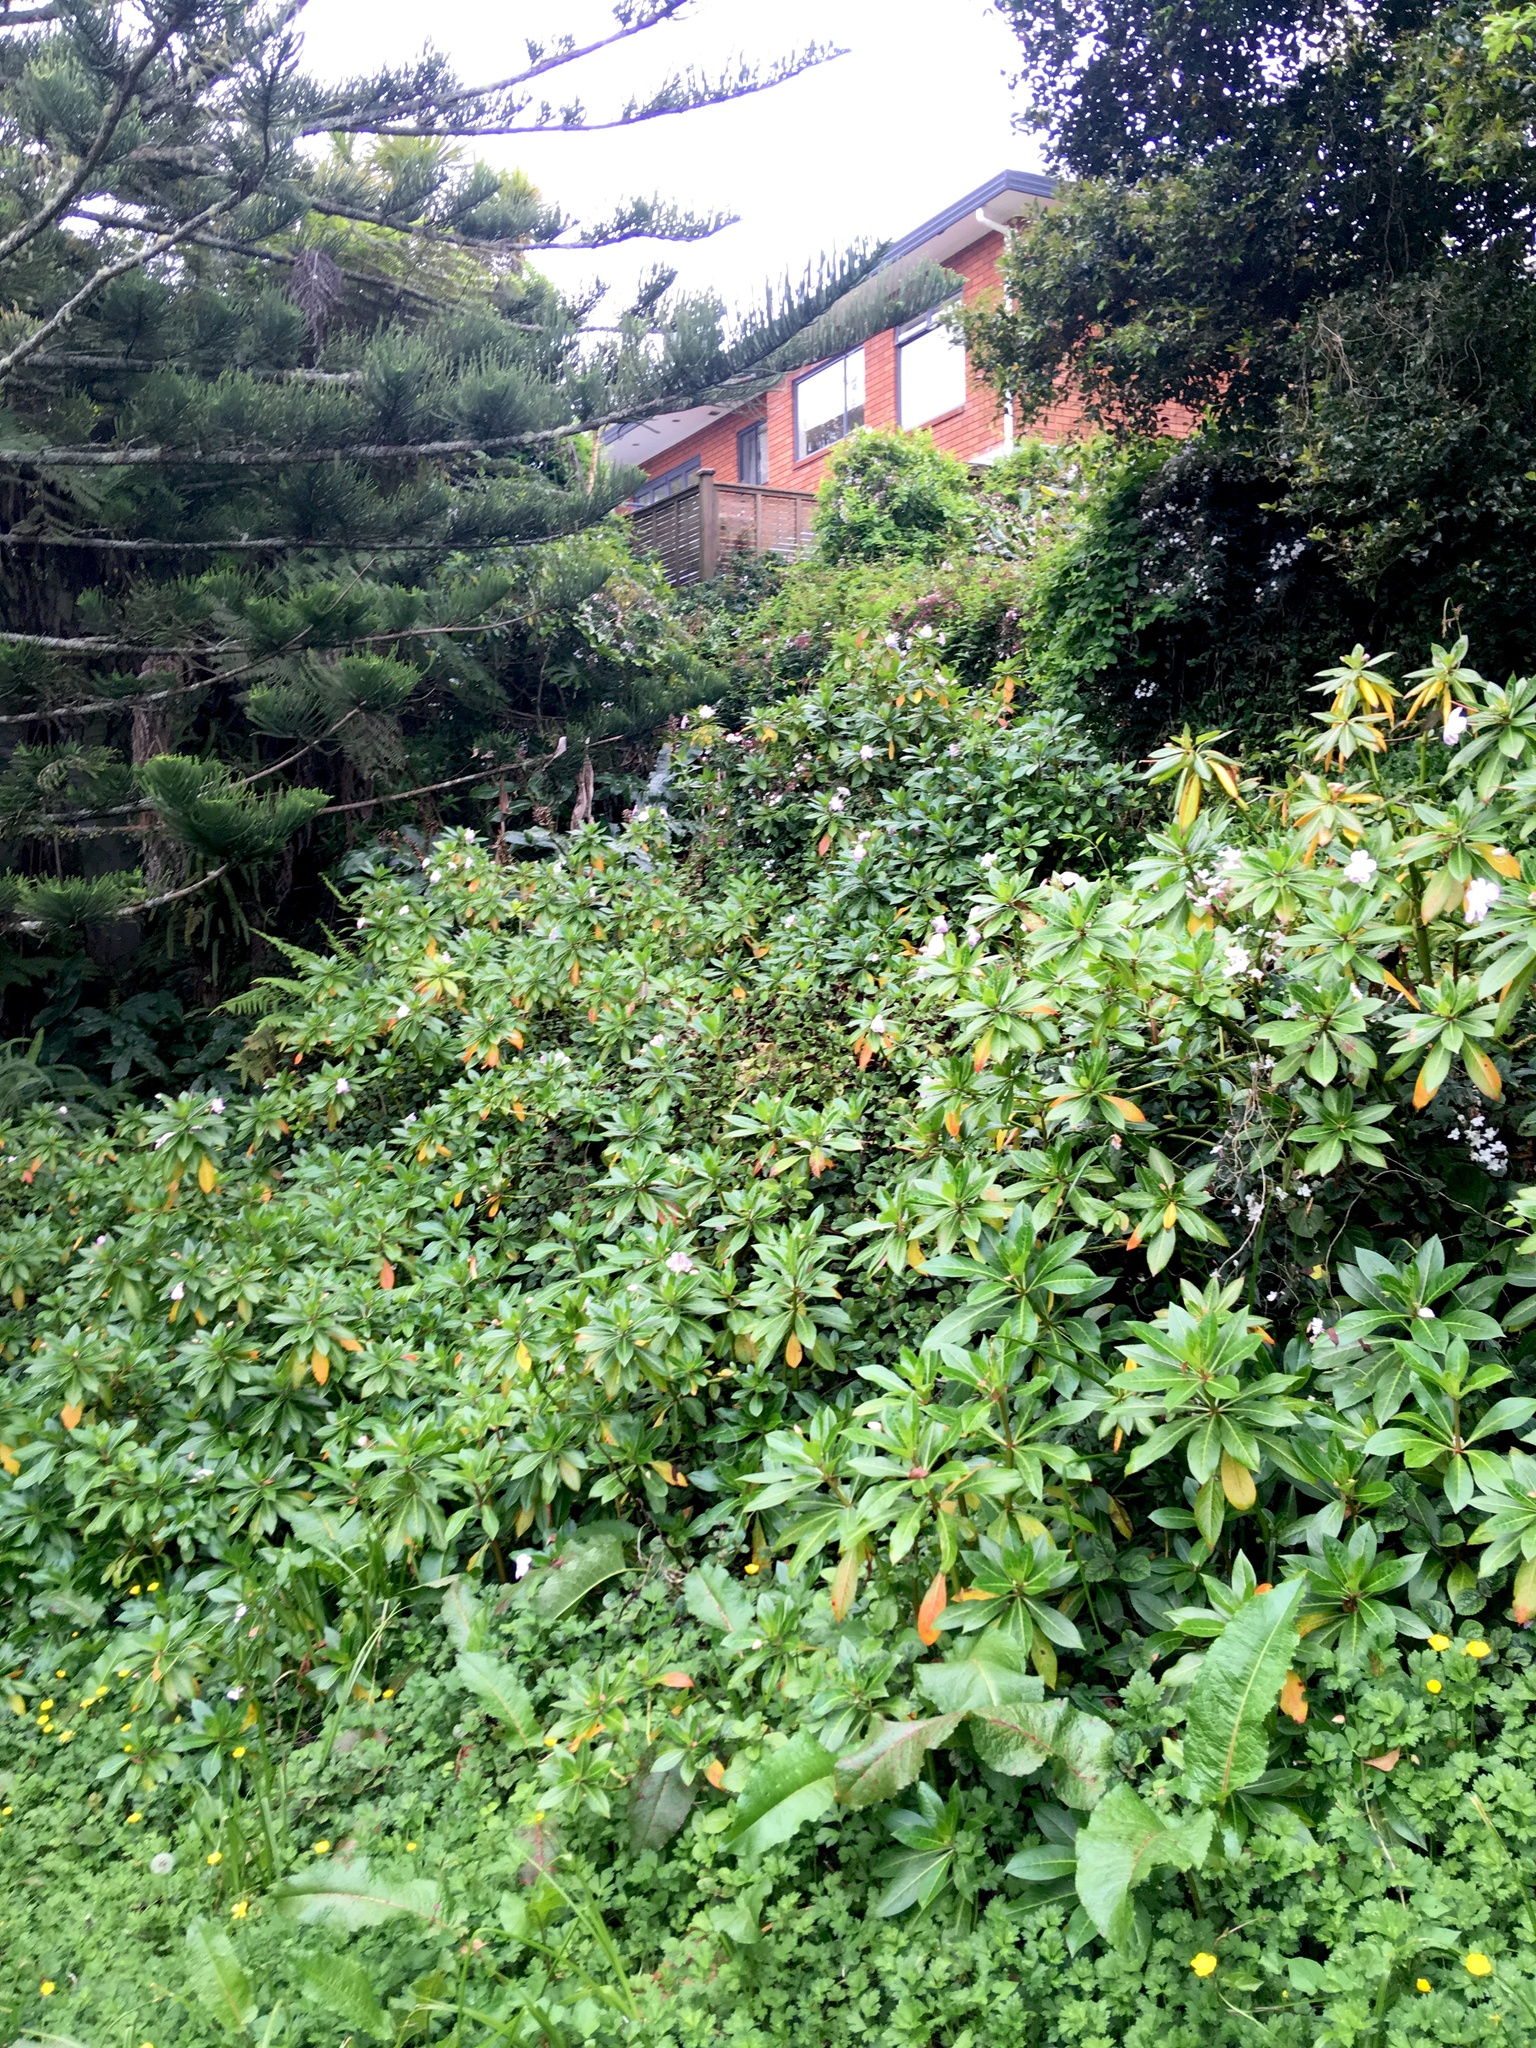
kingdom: Plantae
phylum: Tracheophyta
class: Magnoliopsida
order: Ericales
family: Balsaminaceae
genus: Impatiens
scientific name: Impatiens sodenii
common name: Oliver's touch-me-not
